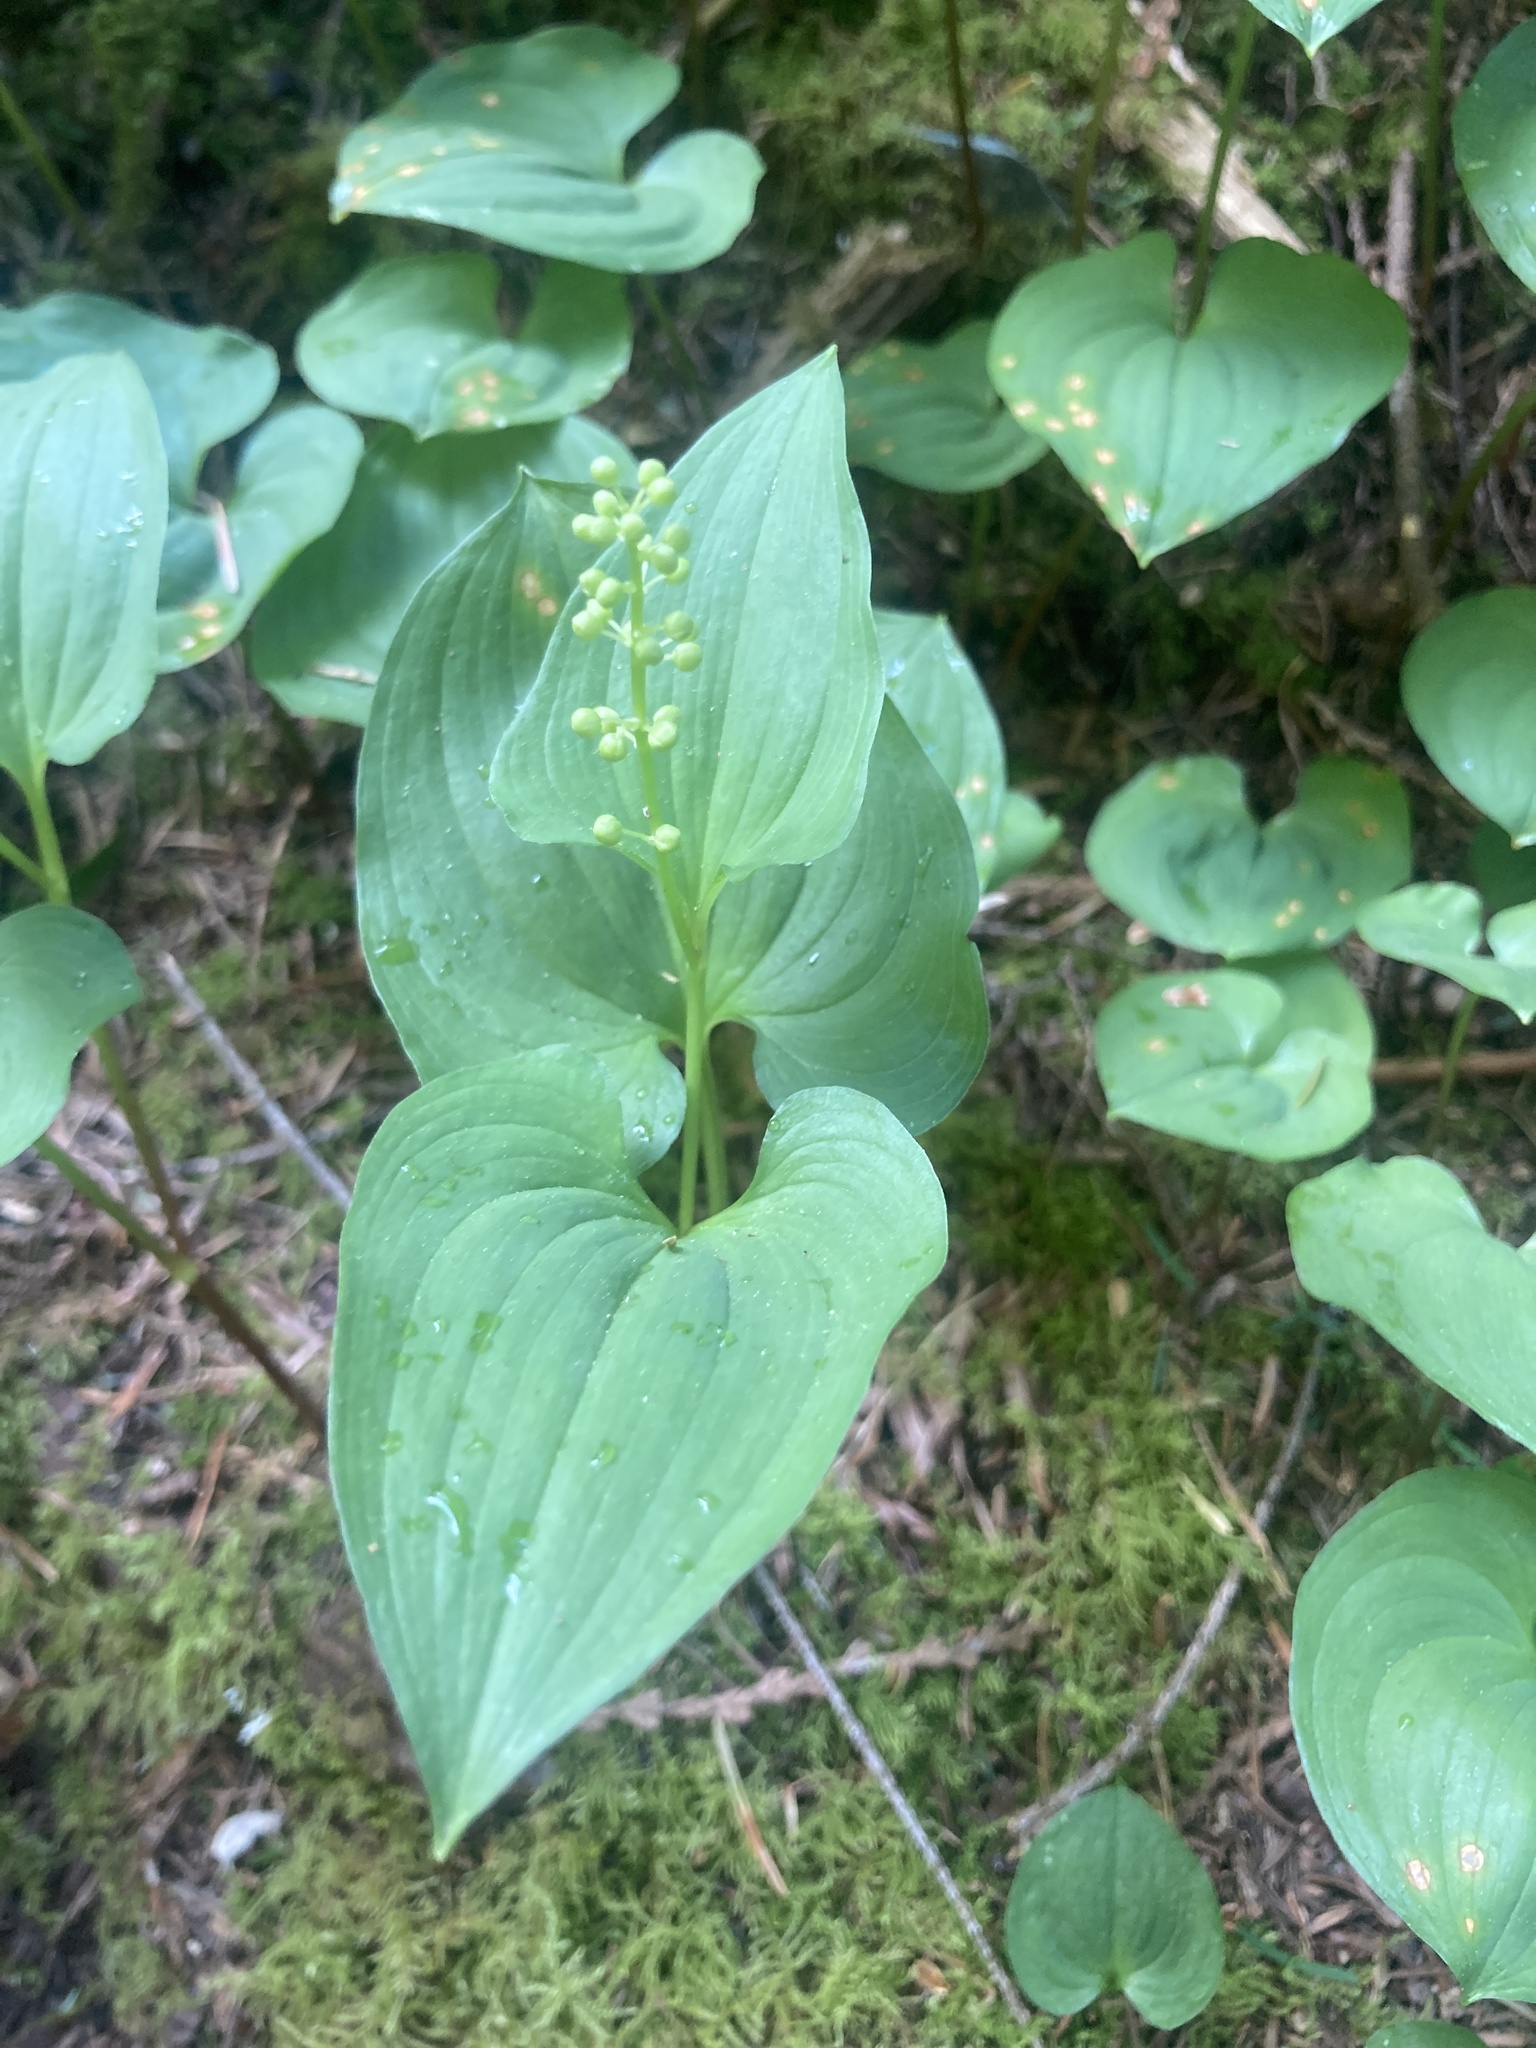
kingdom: Plantae
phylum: Tracheophyta
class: Liliopsida
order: Asparagales
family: Asparagaceae
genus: Maianthemum
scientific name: Maianthemum dilatatum
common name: False lily-of-the-valley
